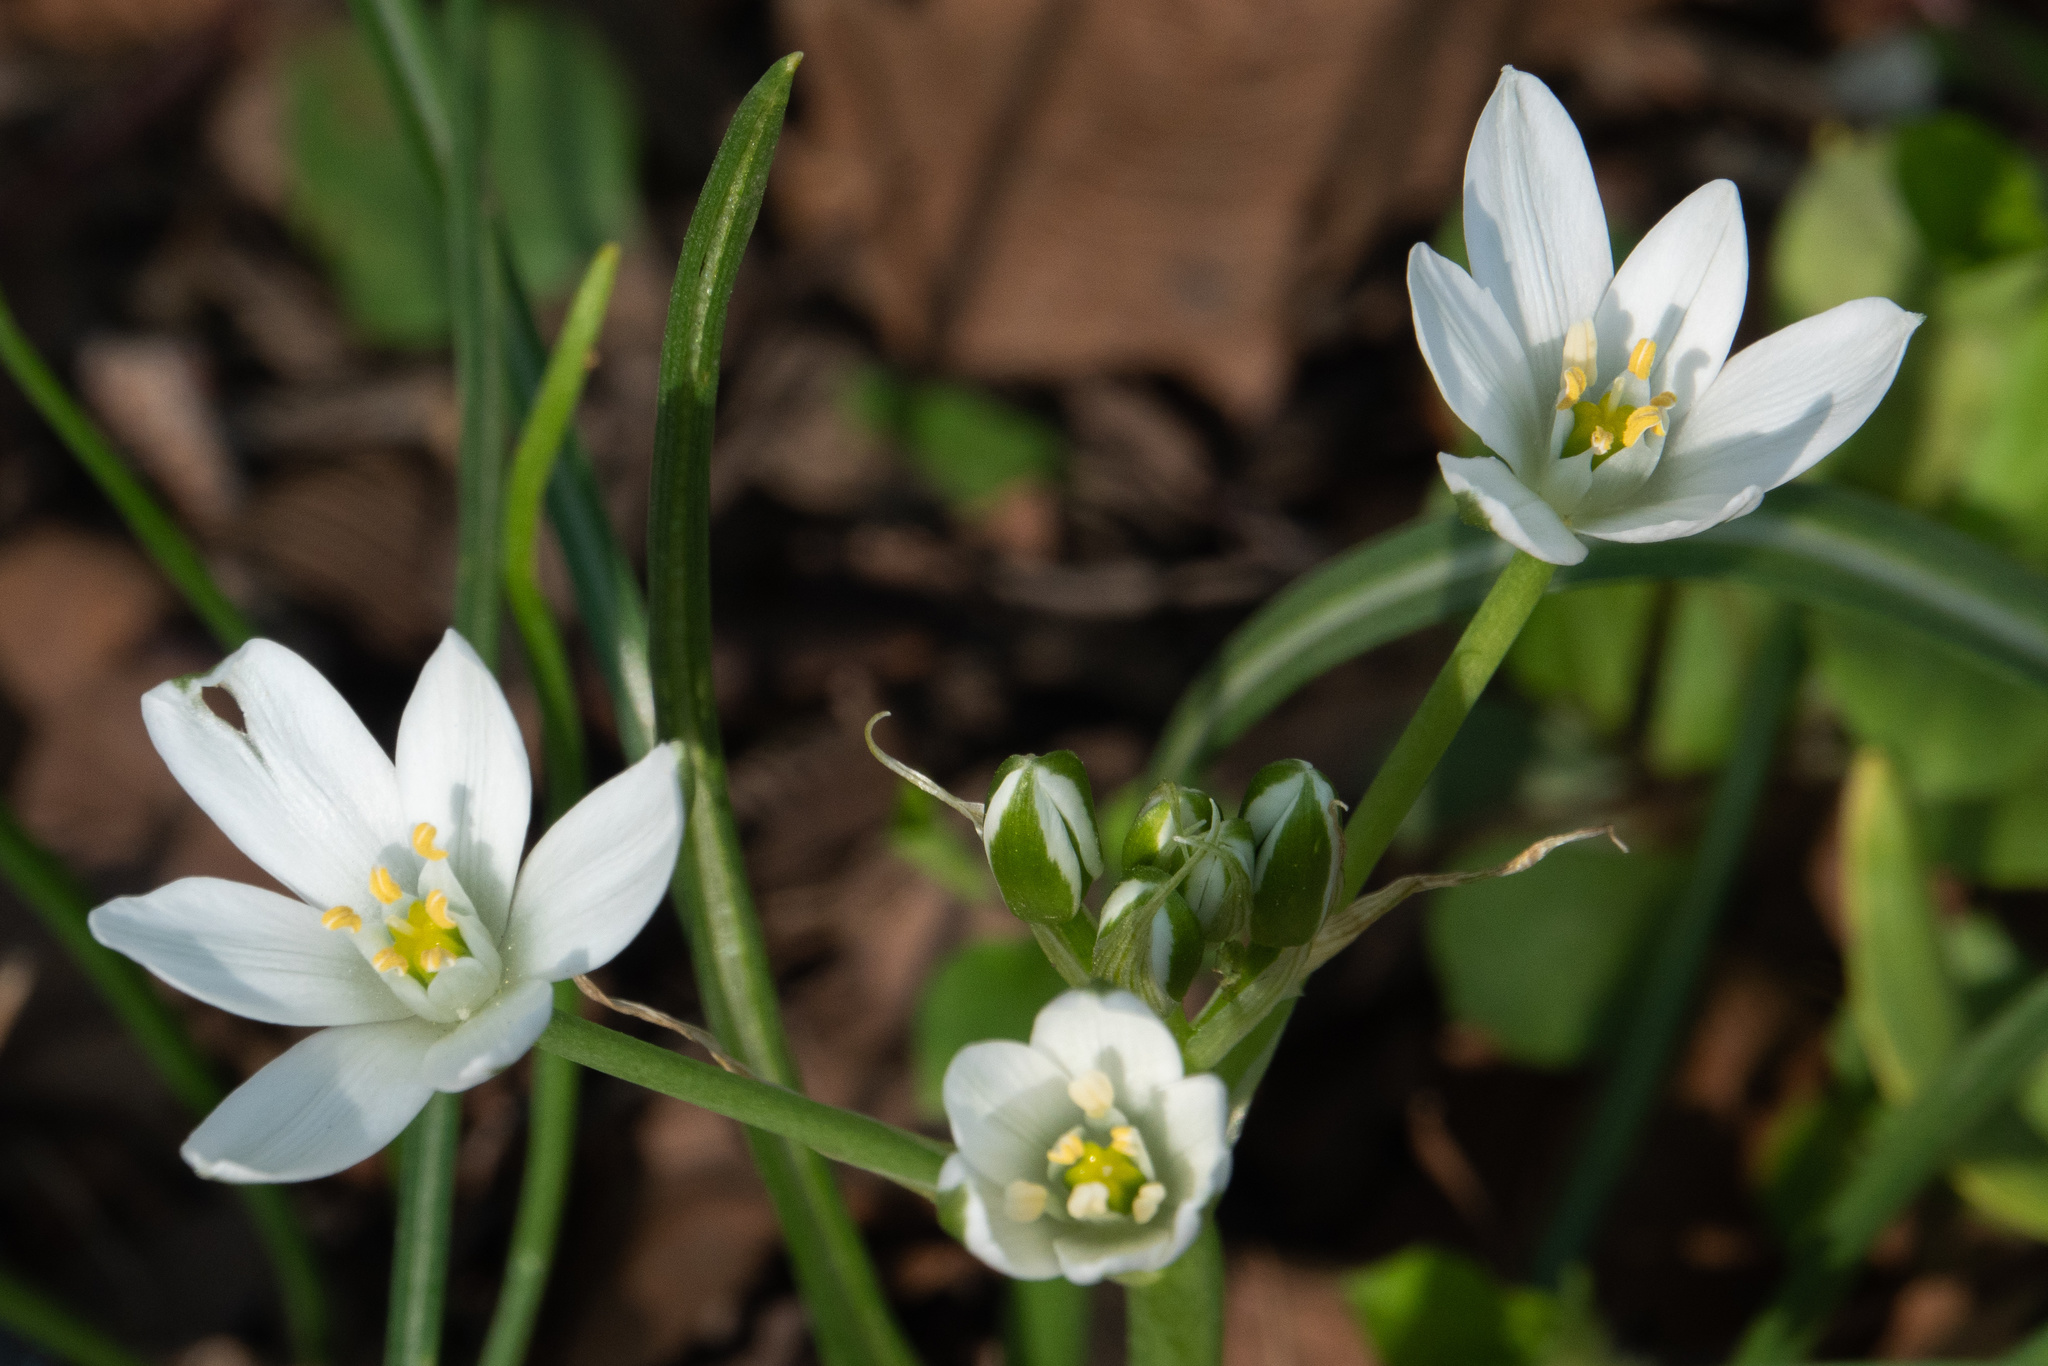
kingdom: Plantae
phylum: Tracheophyta
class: Liliopsida
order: Asparagales
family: Asparagaceae
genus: Ornithogalum
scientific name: Ornithogalum umbellatum
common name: Garden star-of-bethlehem
